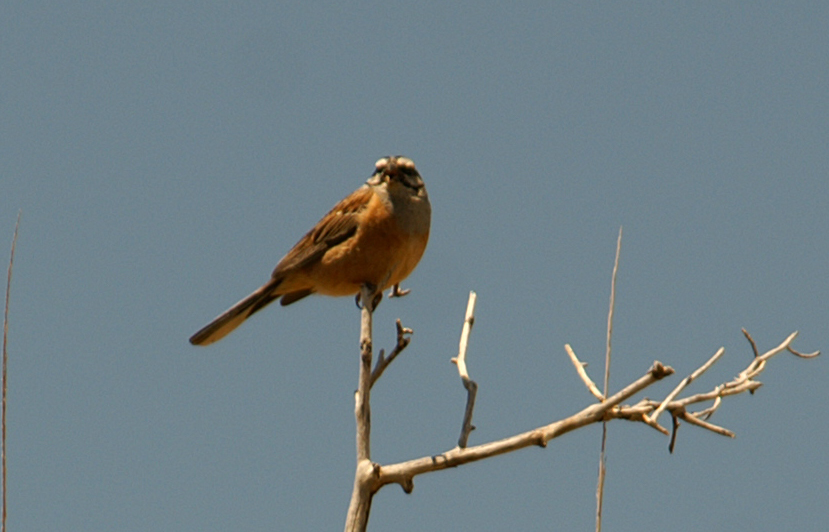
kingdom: Animalia
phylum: Chordata
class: Aves
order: Passeriformes
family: Emberizidae
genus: Emberiza
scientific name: Emberiza cia
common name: Rock bunting
